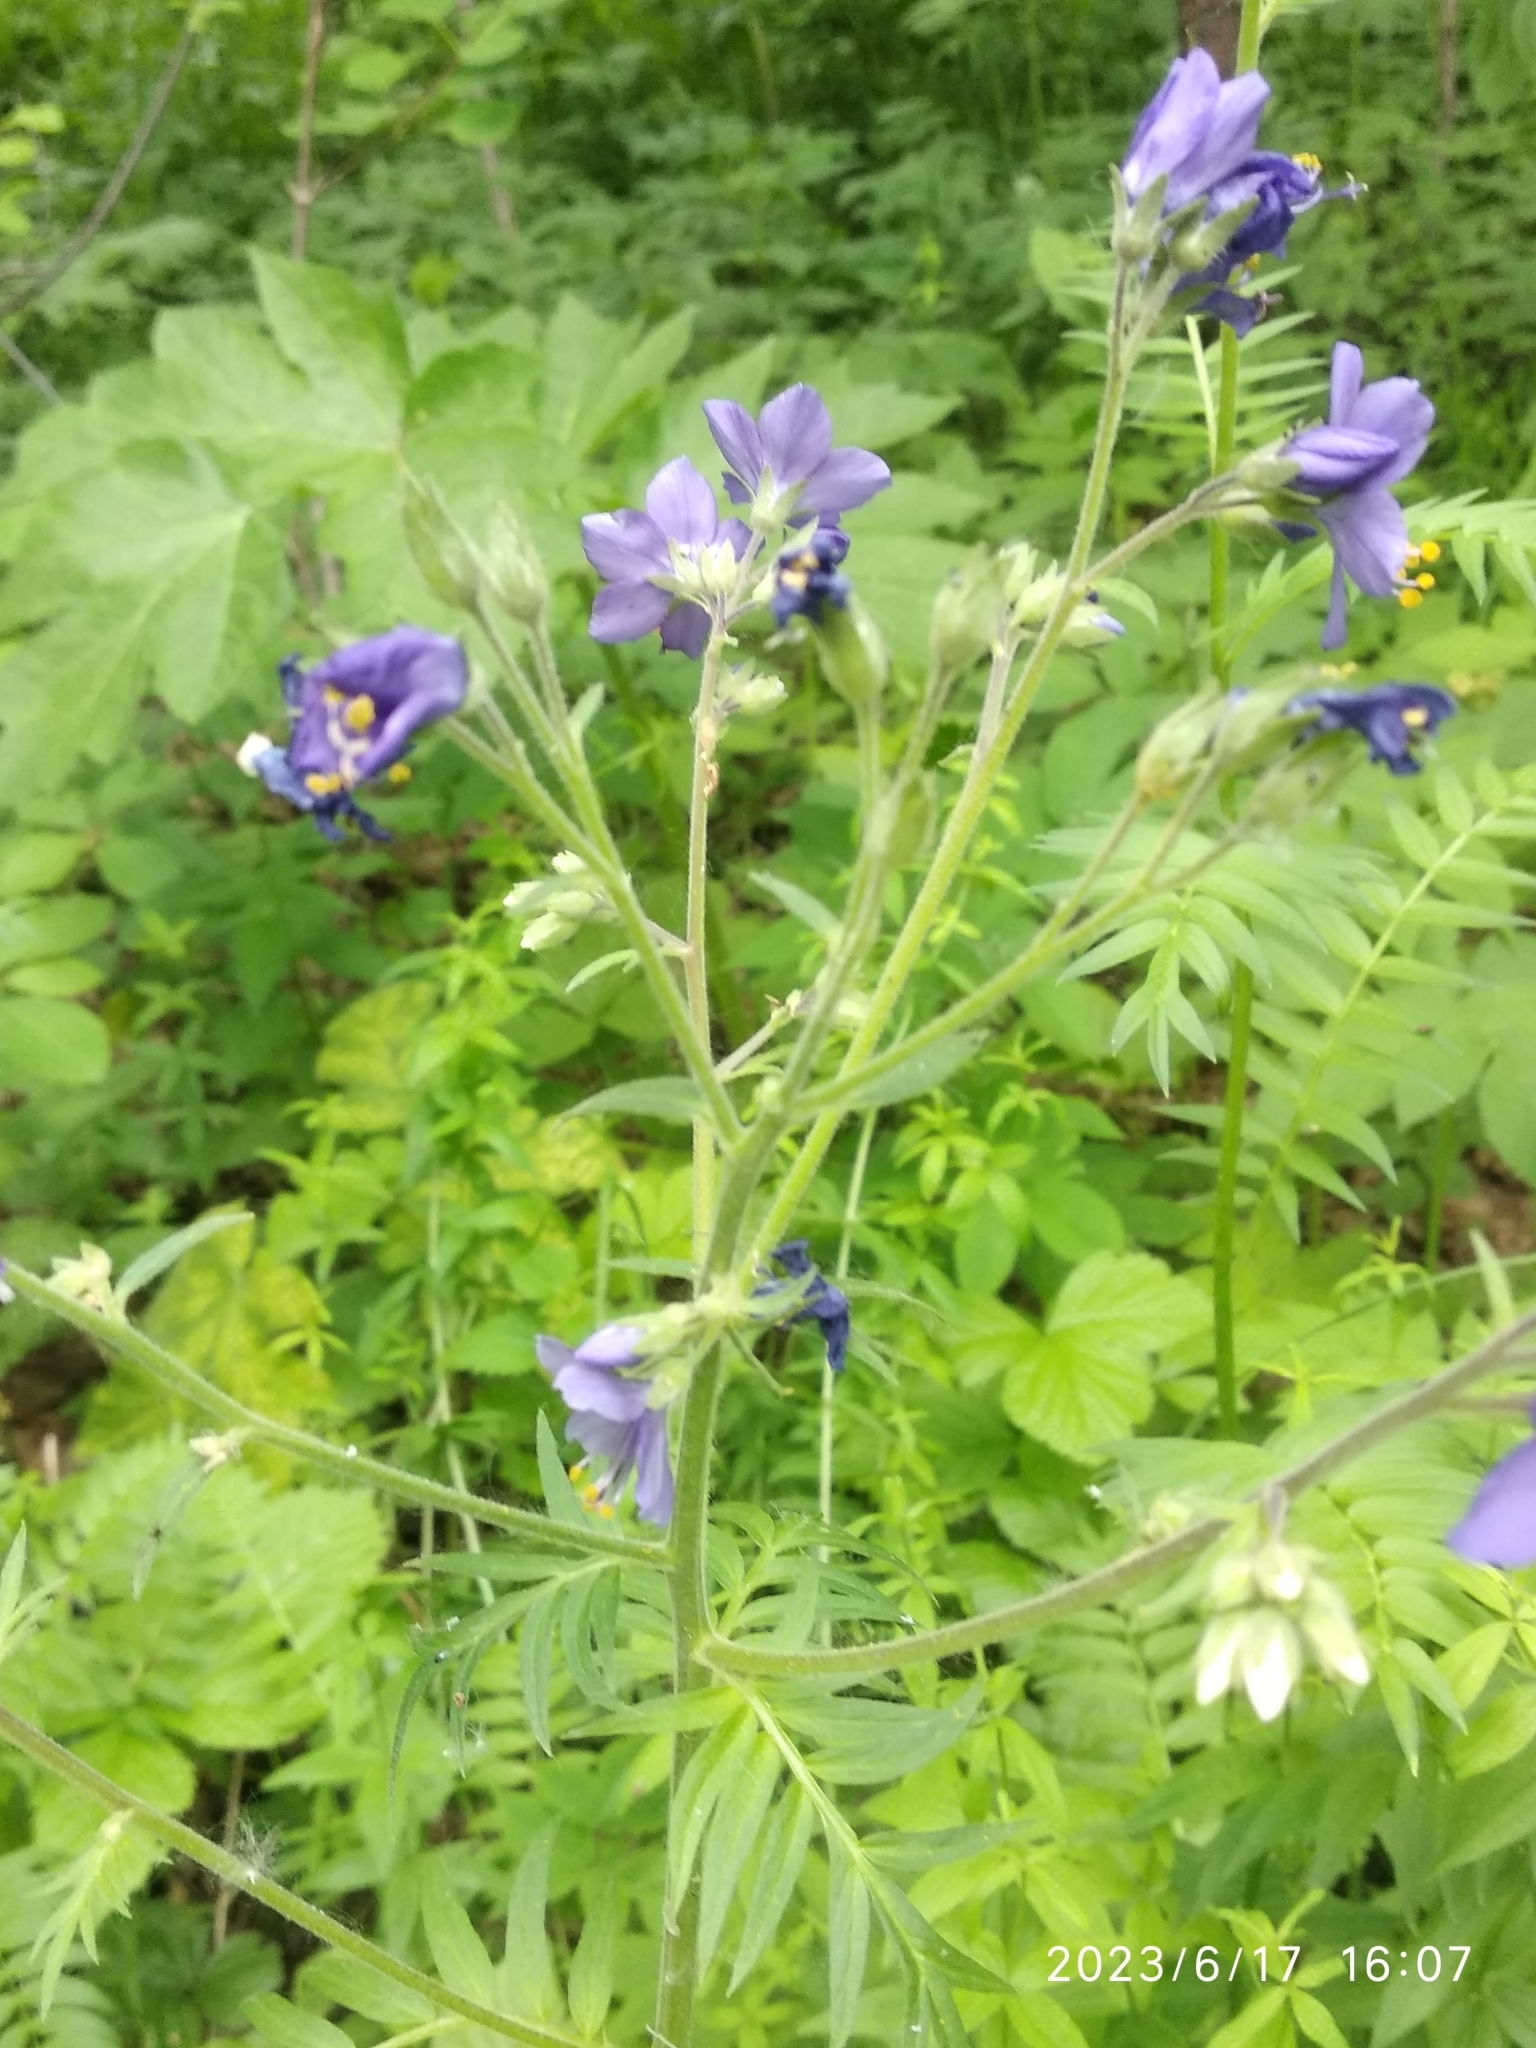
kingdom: Plantae
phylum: Tracheophyta
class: Magnoliopsida
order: Ericales
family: Polemoniaceae
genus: Polemonium
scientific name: Polemonium caeruleum
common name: Jacob's-ladder
